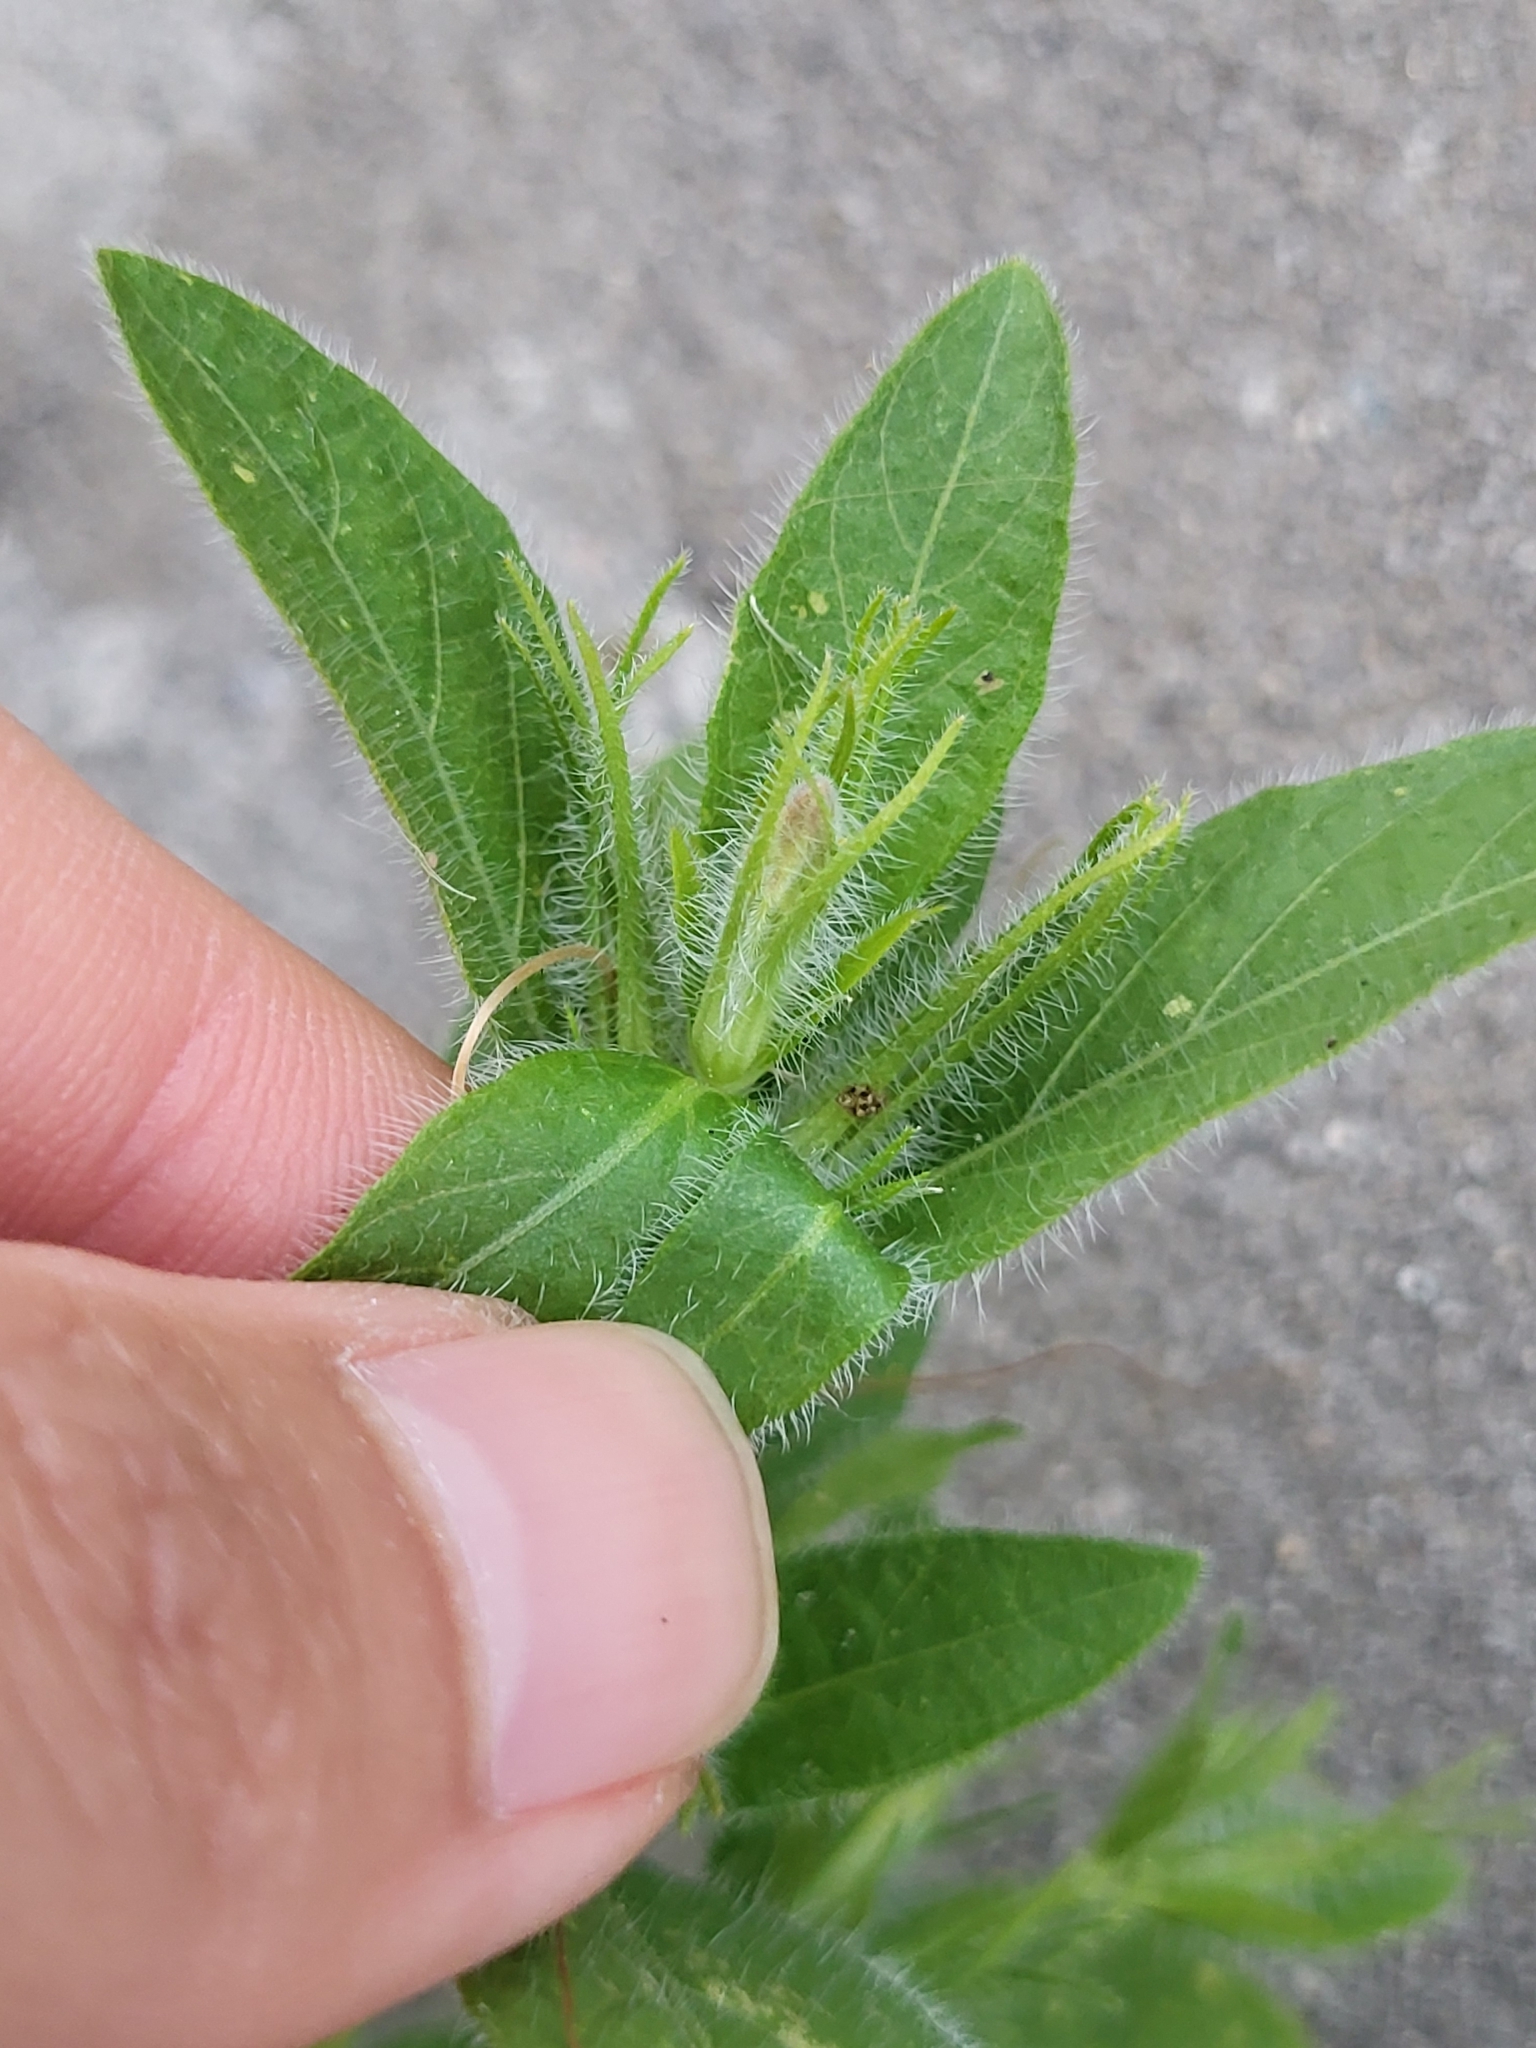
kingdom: Plantae
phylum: Tracheophyta
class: Magnoliopsida
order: Lamiales
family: Acanthaceae
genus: Ruellia
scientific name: Ruellia humilis
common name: Fringe-leaf ruellia
